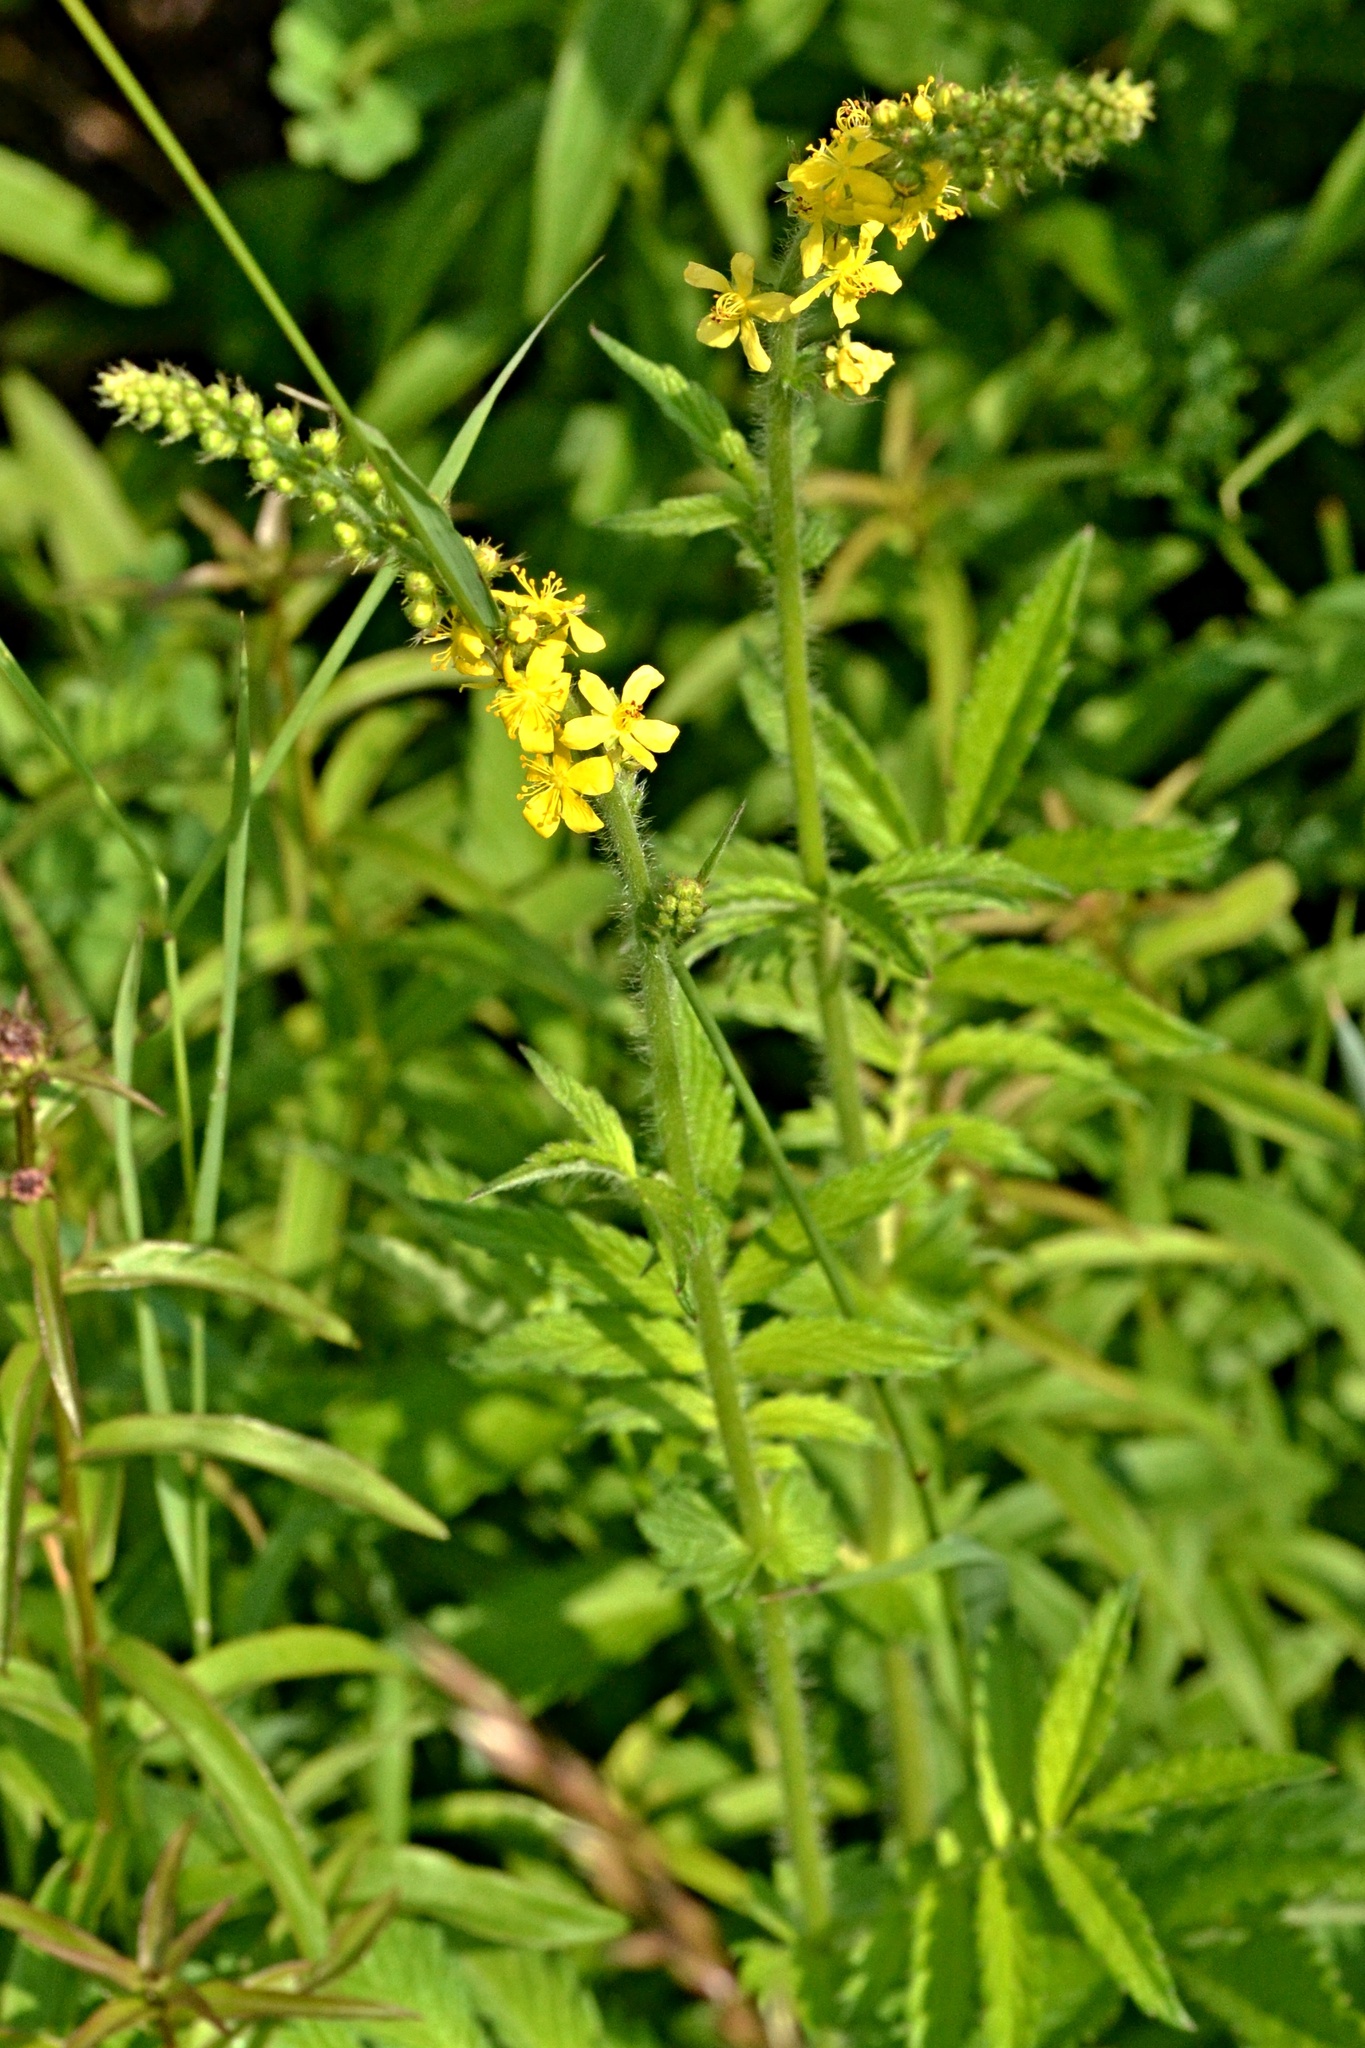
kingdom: Plantae
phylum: Tracheophyta
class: Magnoliopsida
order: Rosales
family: Rosaceae
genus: Agrimonia
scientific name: Agrimonia eupatoria
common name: Agrimony
